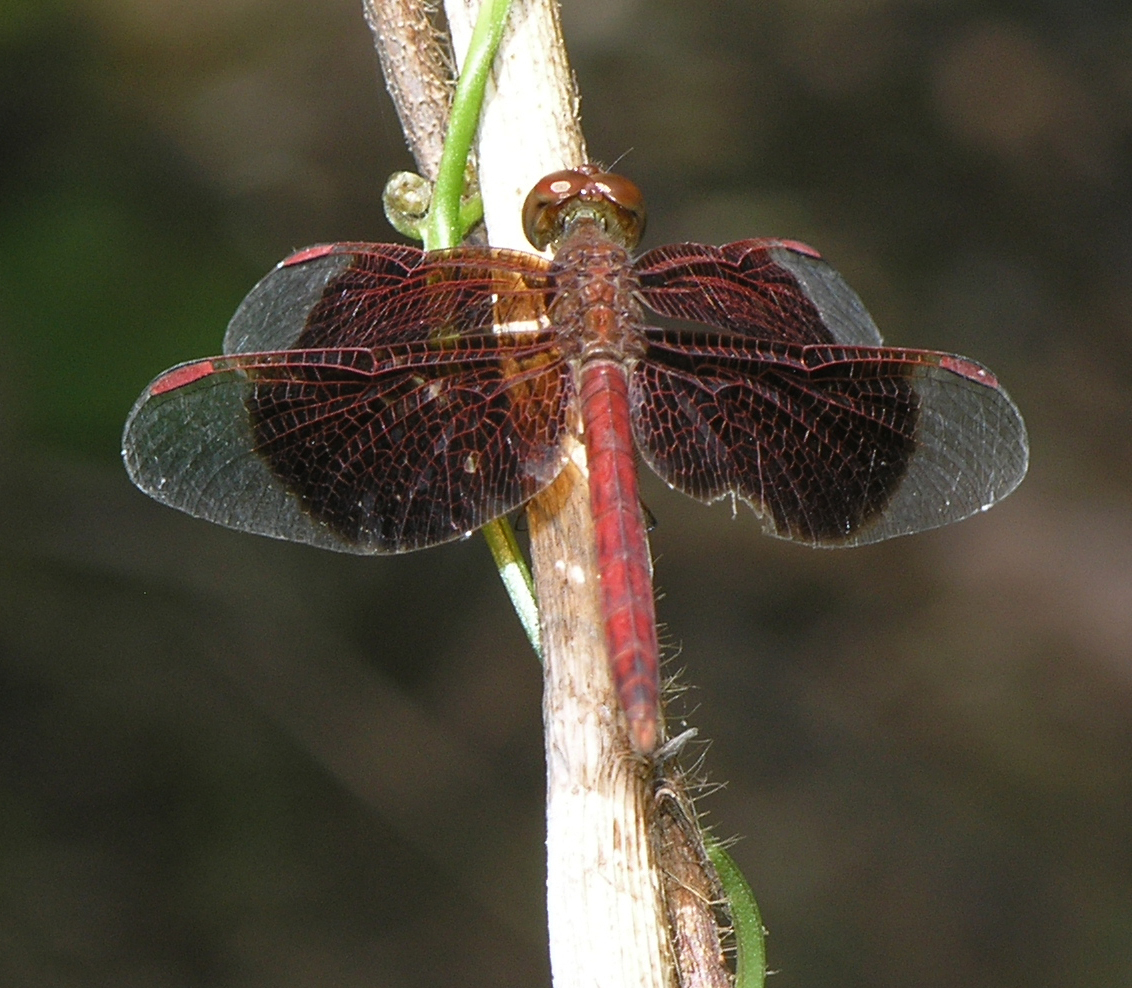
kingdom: Animalia
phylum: Arthropoda
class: Insecta
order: Odonata
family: Libellulidae
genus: Neurothemis
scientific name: Neurothemis fluctuans
